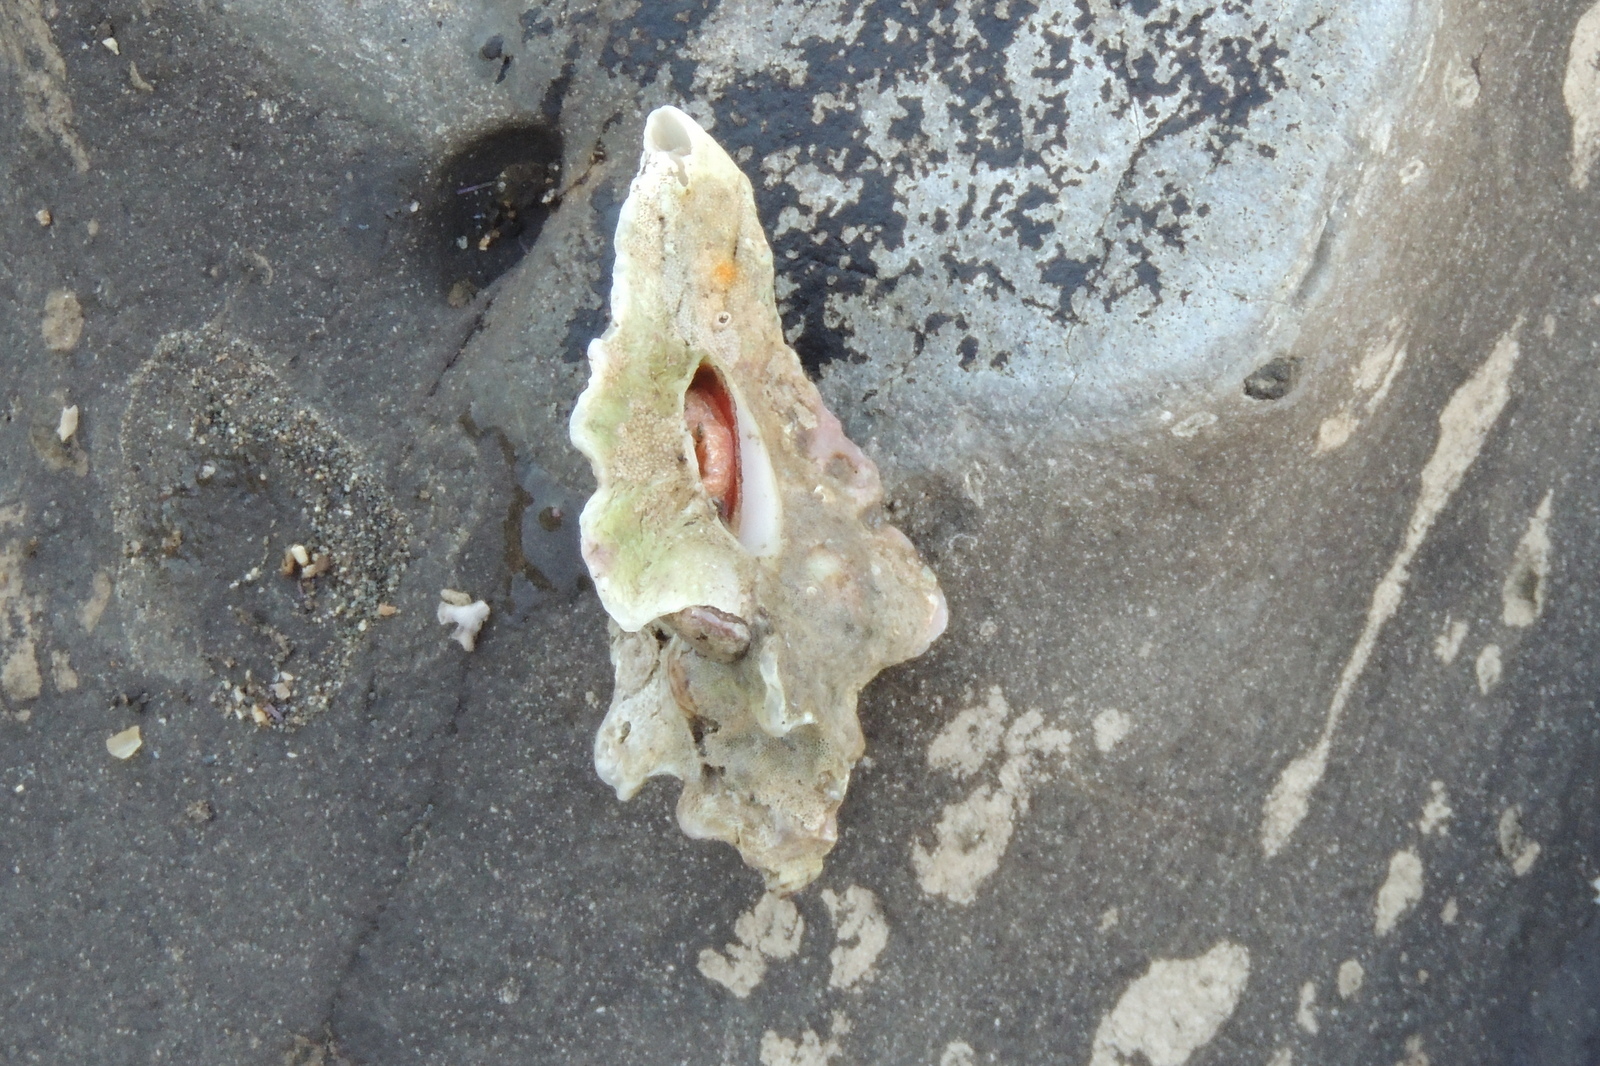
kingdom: Animalia
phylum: Mollusca
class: Gastropoda
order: Neogastropoda
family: Muricidae
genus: Pteropurpura
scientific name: Pteropurpura trialata
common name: Three-winged murex
